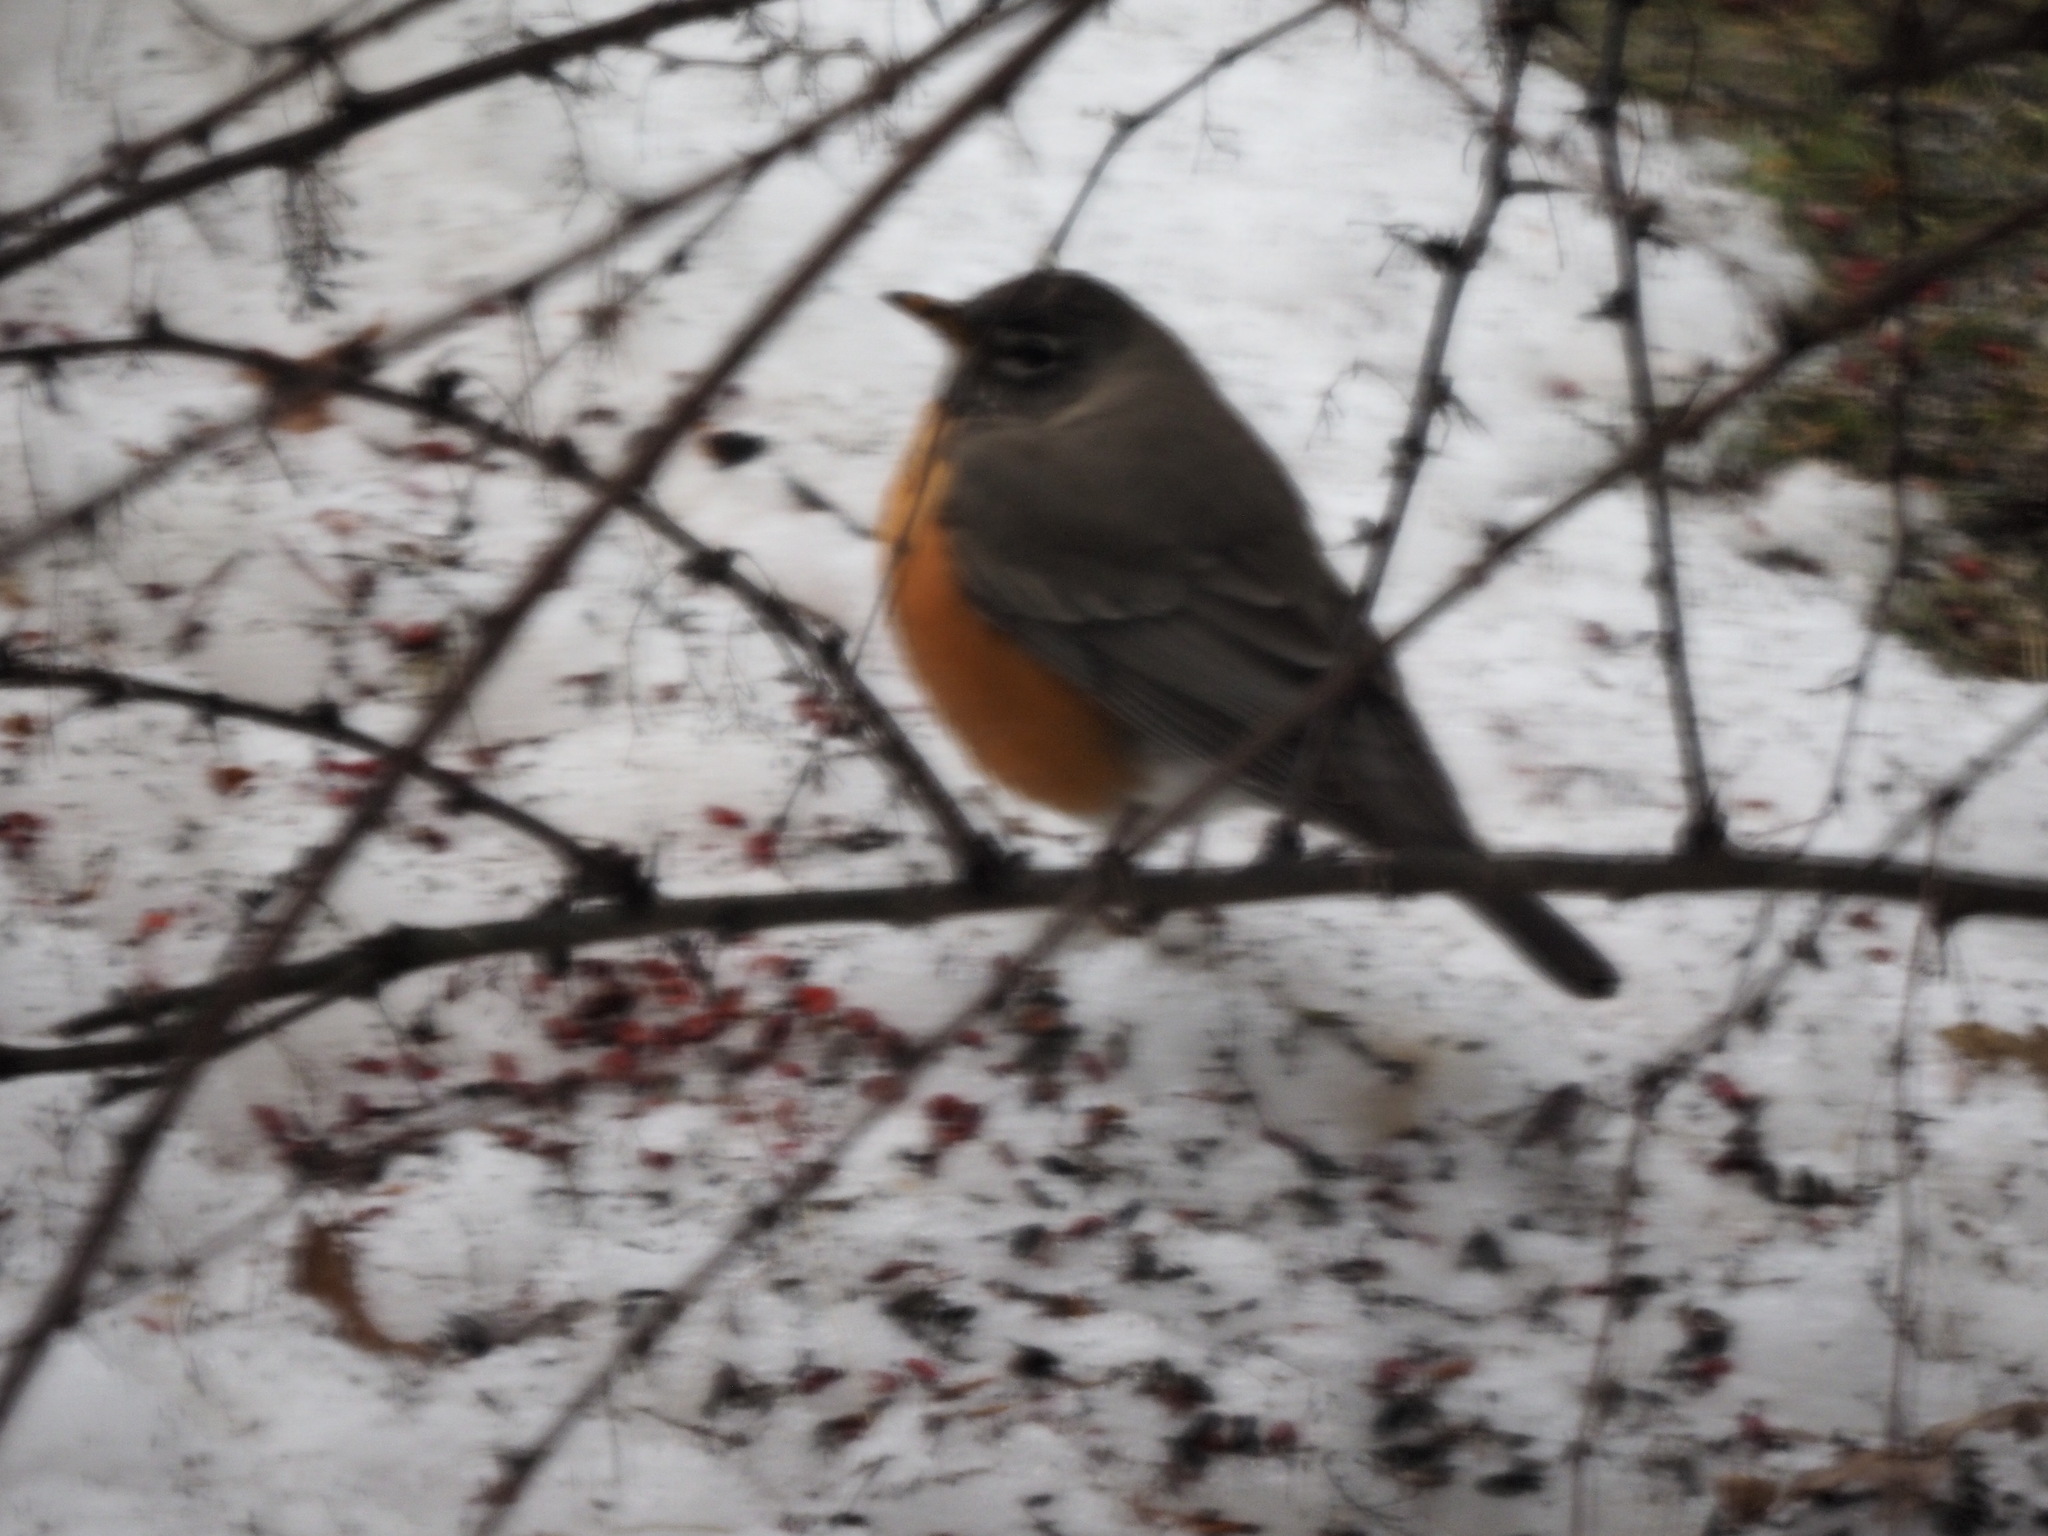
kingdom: Animalia
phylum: Chordata
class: Aves
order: Passeriformes
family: Turdidae
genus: Turdus
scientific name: Turdus migratorius
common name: American robin
